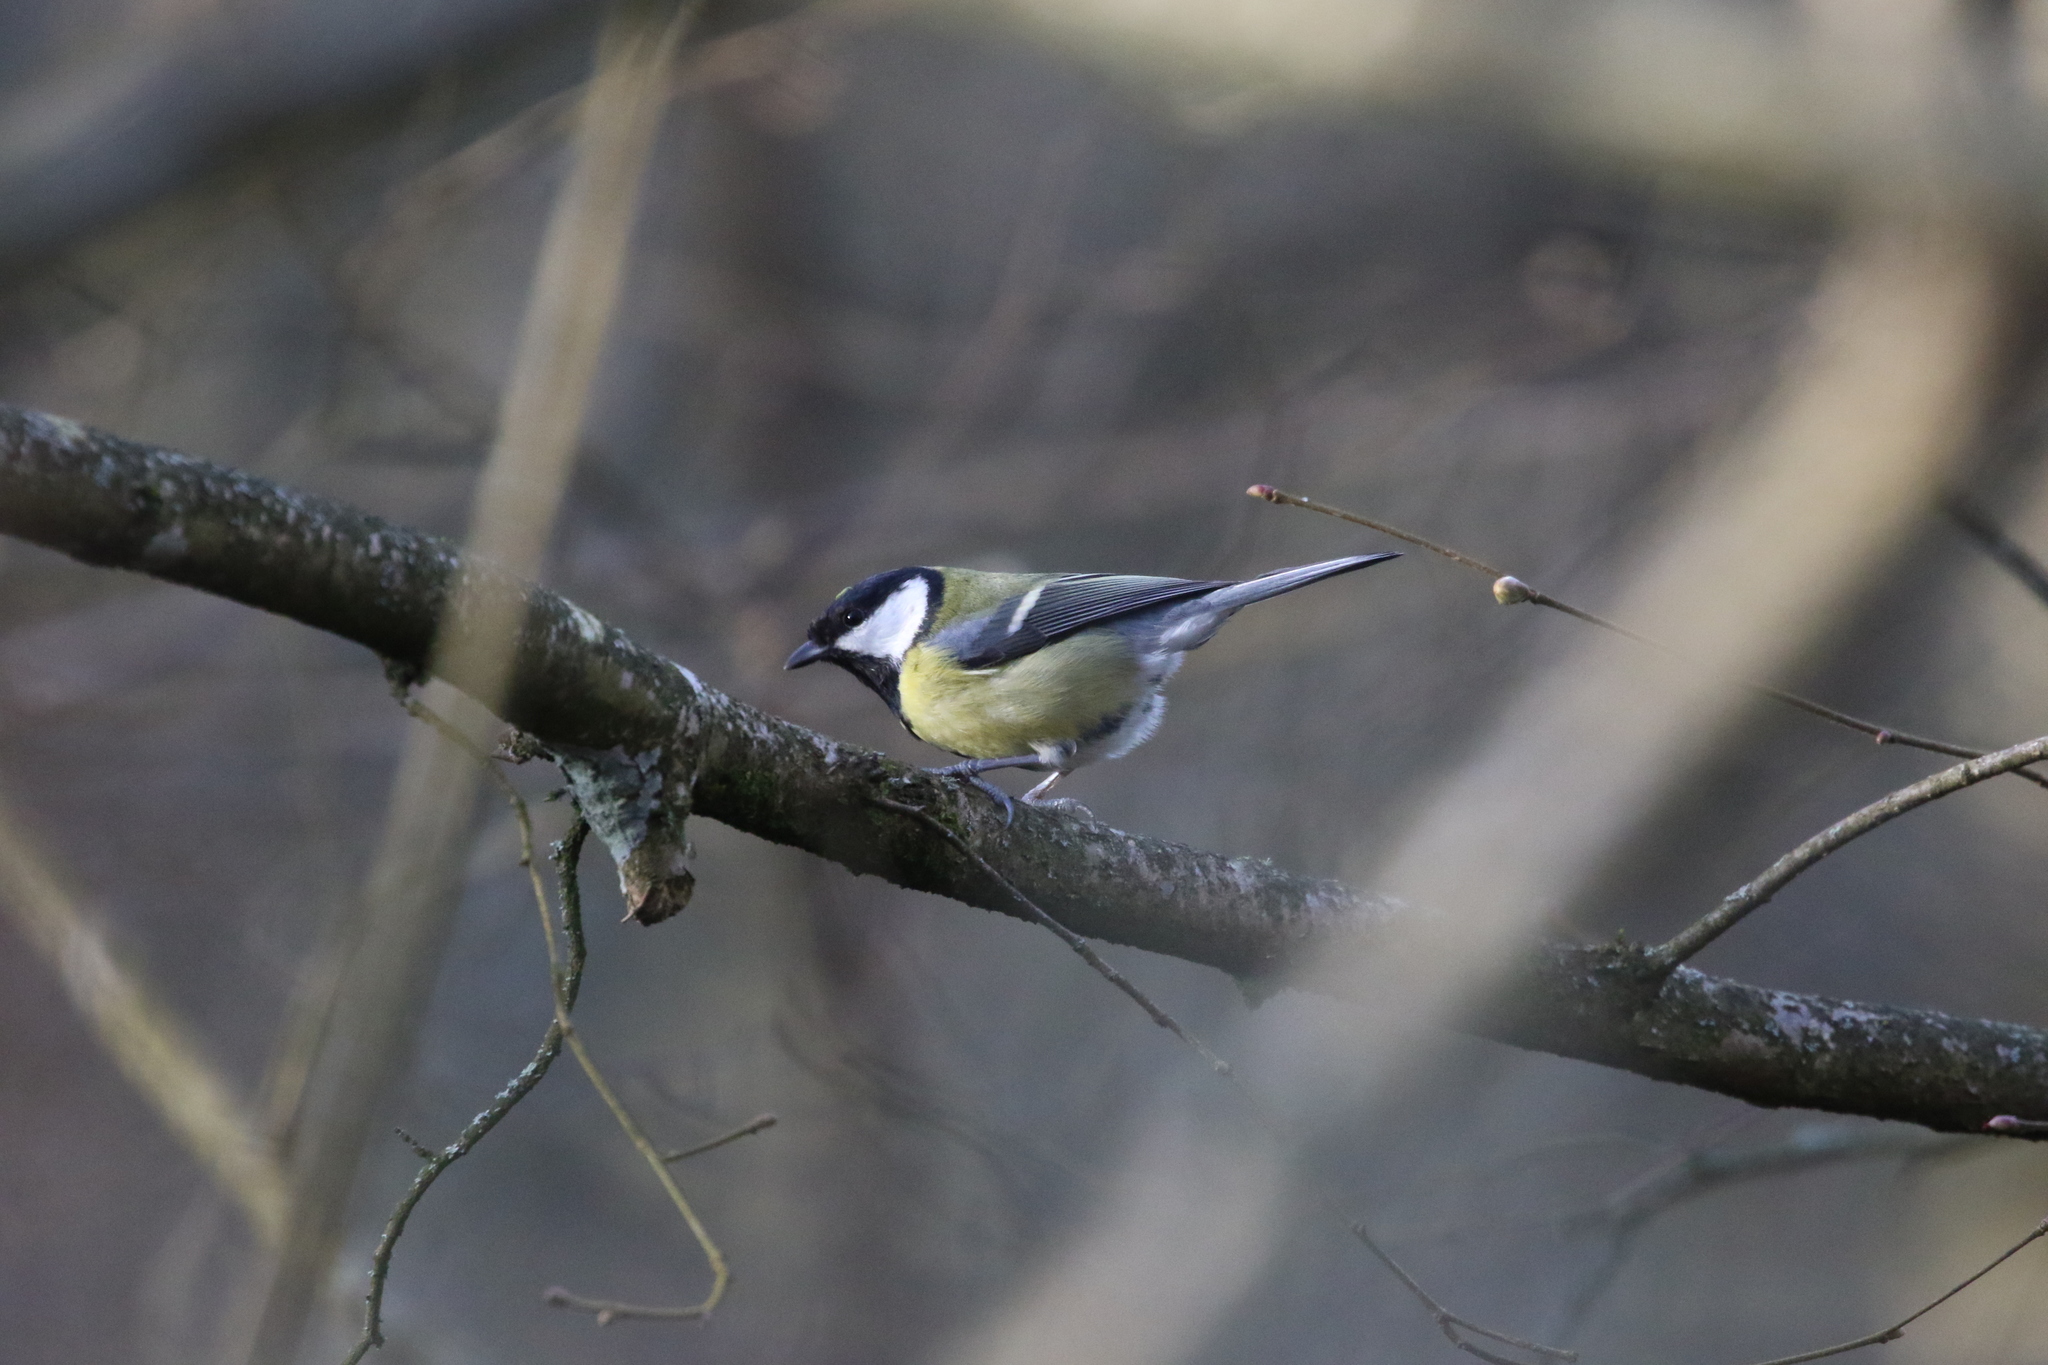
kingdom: Animalia
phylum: Chordata
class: Aves
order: Passeriformes
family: Paridae
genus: Parus
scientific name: Parus major
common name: Great tit
